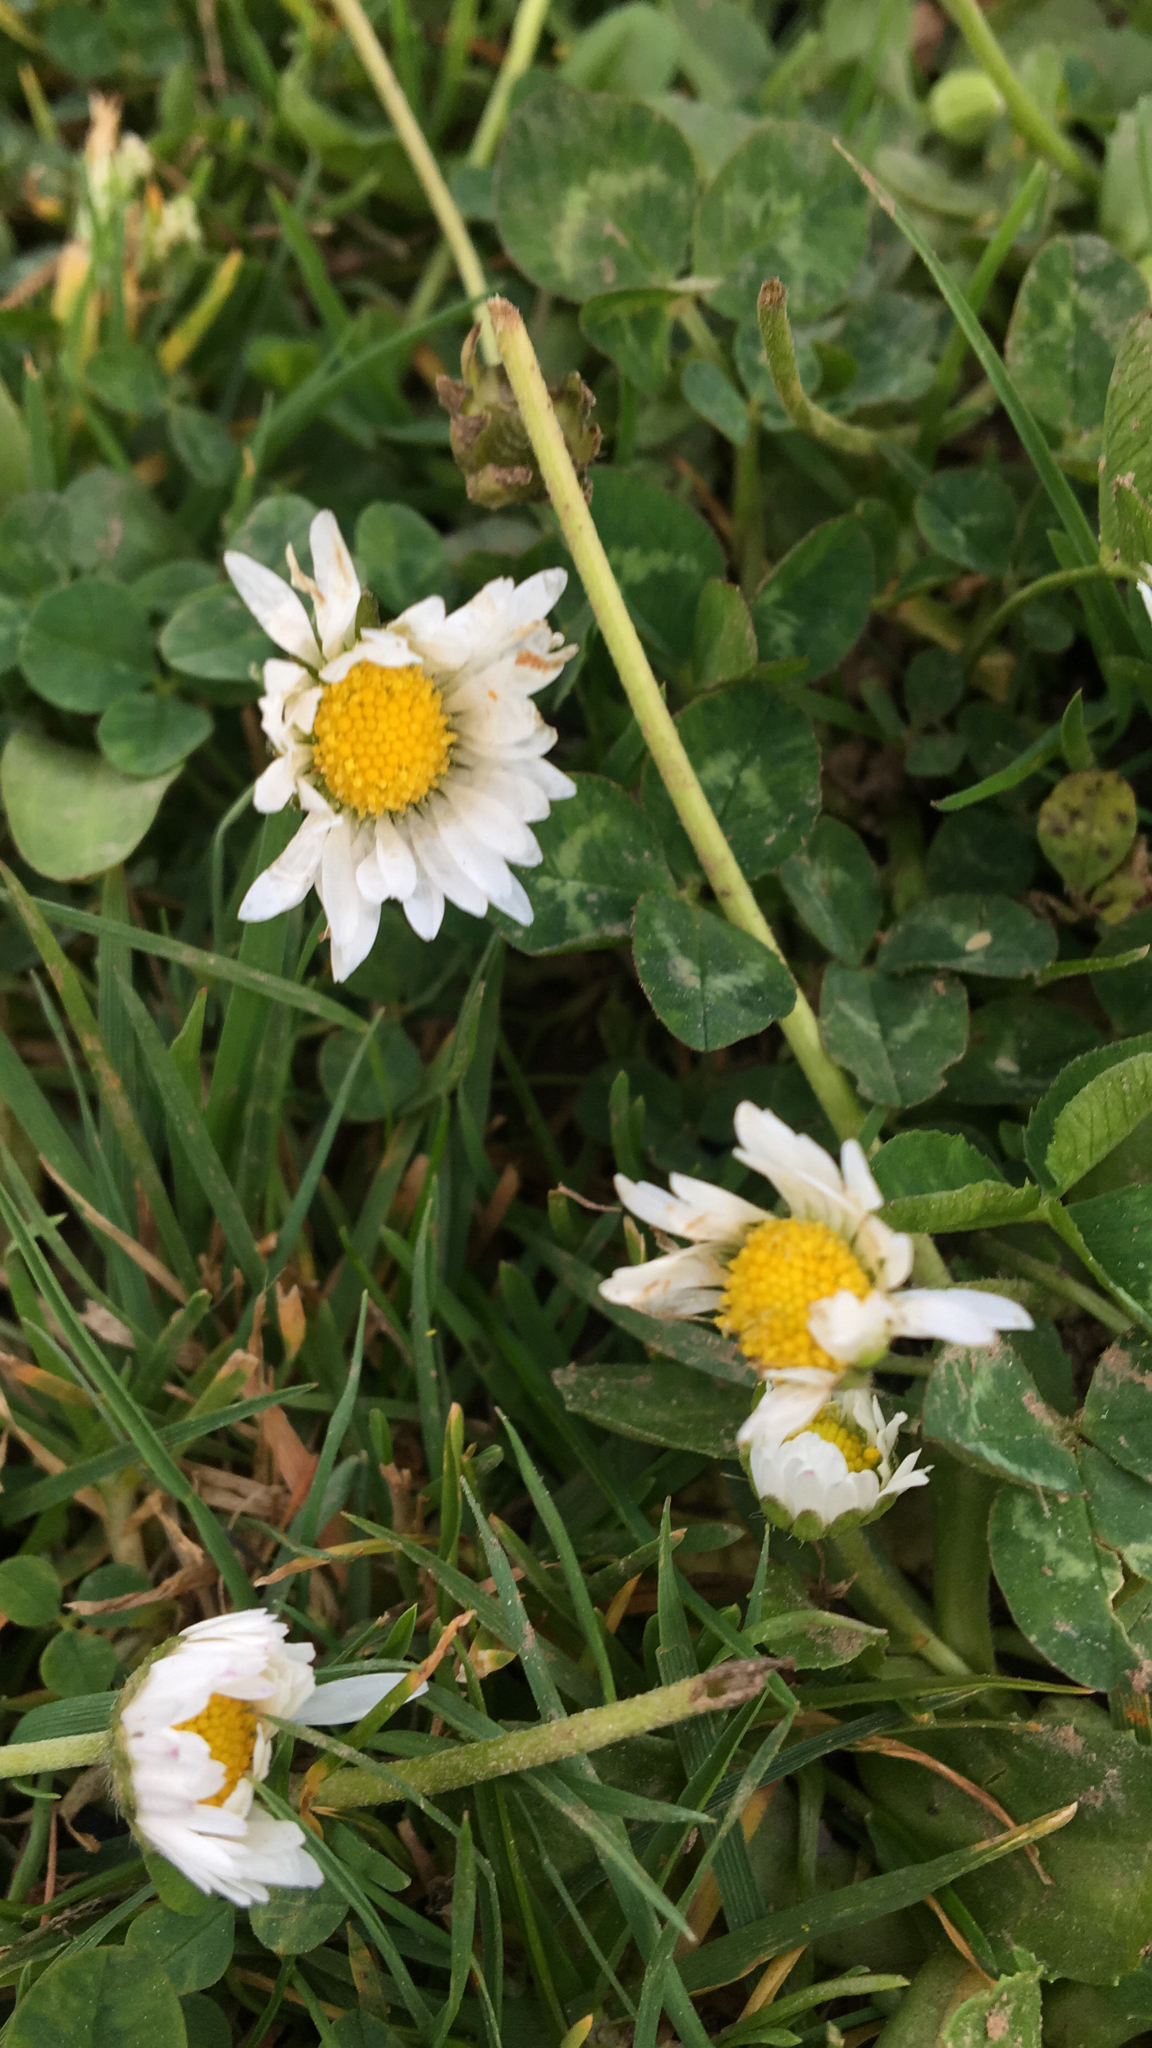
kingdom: Plantae
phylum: Tracheophyta
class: Magnoliopsida
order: Asterales
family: Asteraceae
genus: Bellis
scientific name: Bellis perennis
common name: Lawndaisy
